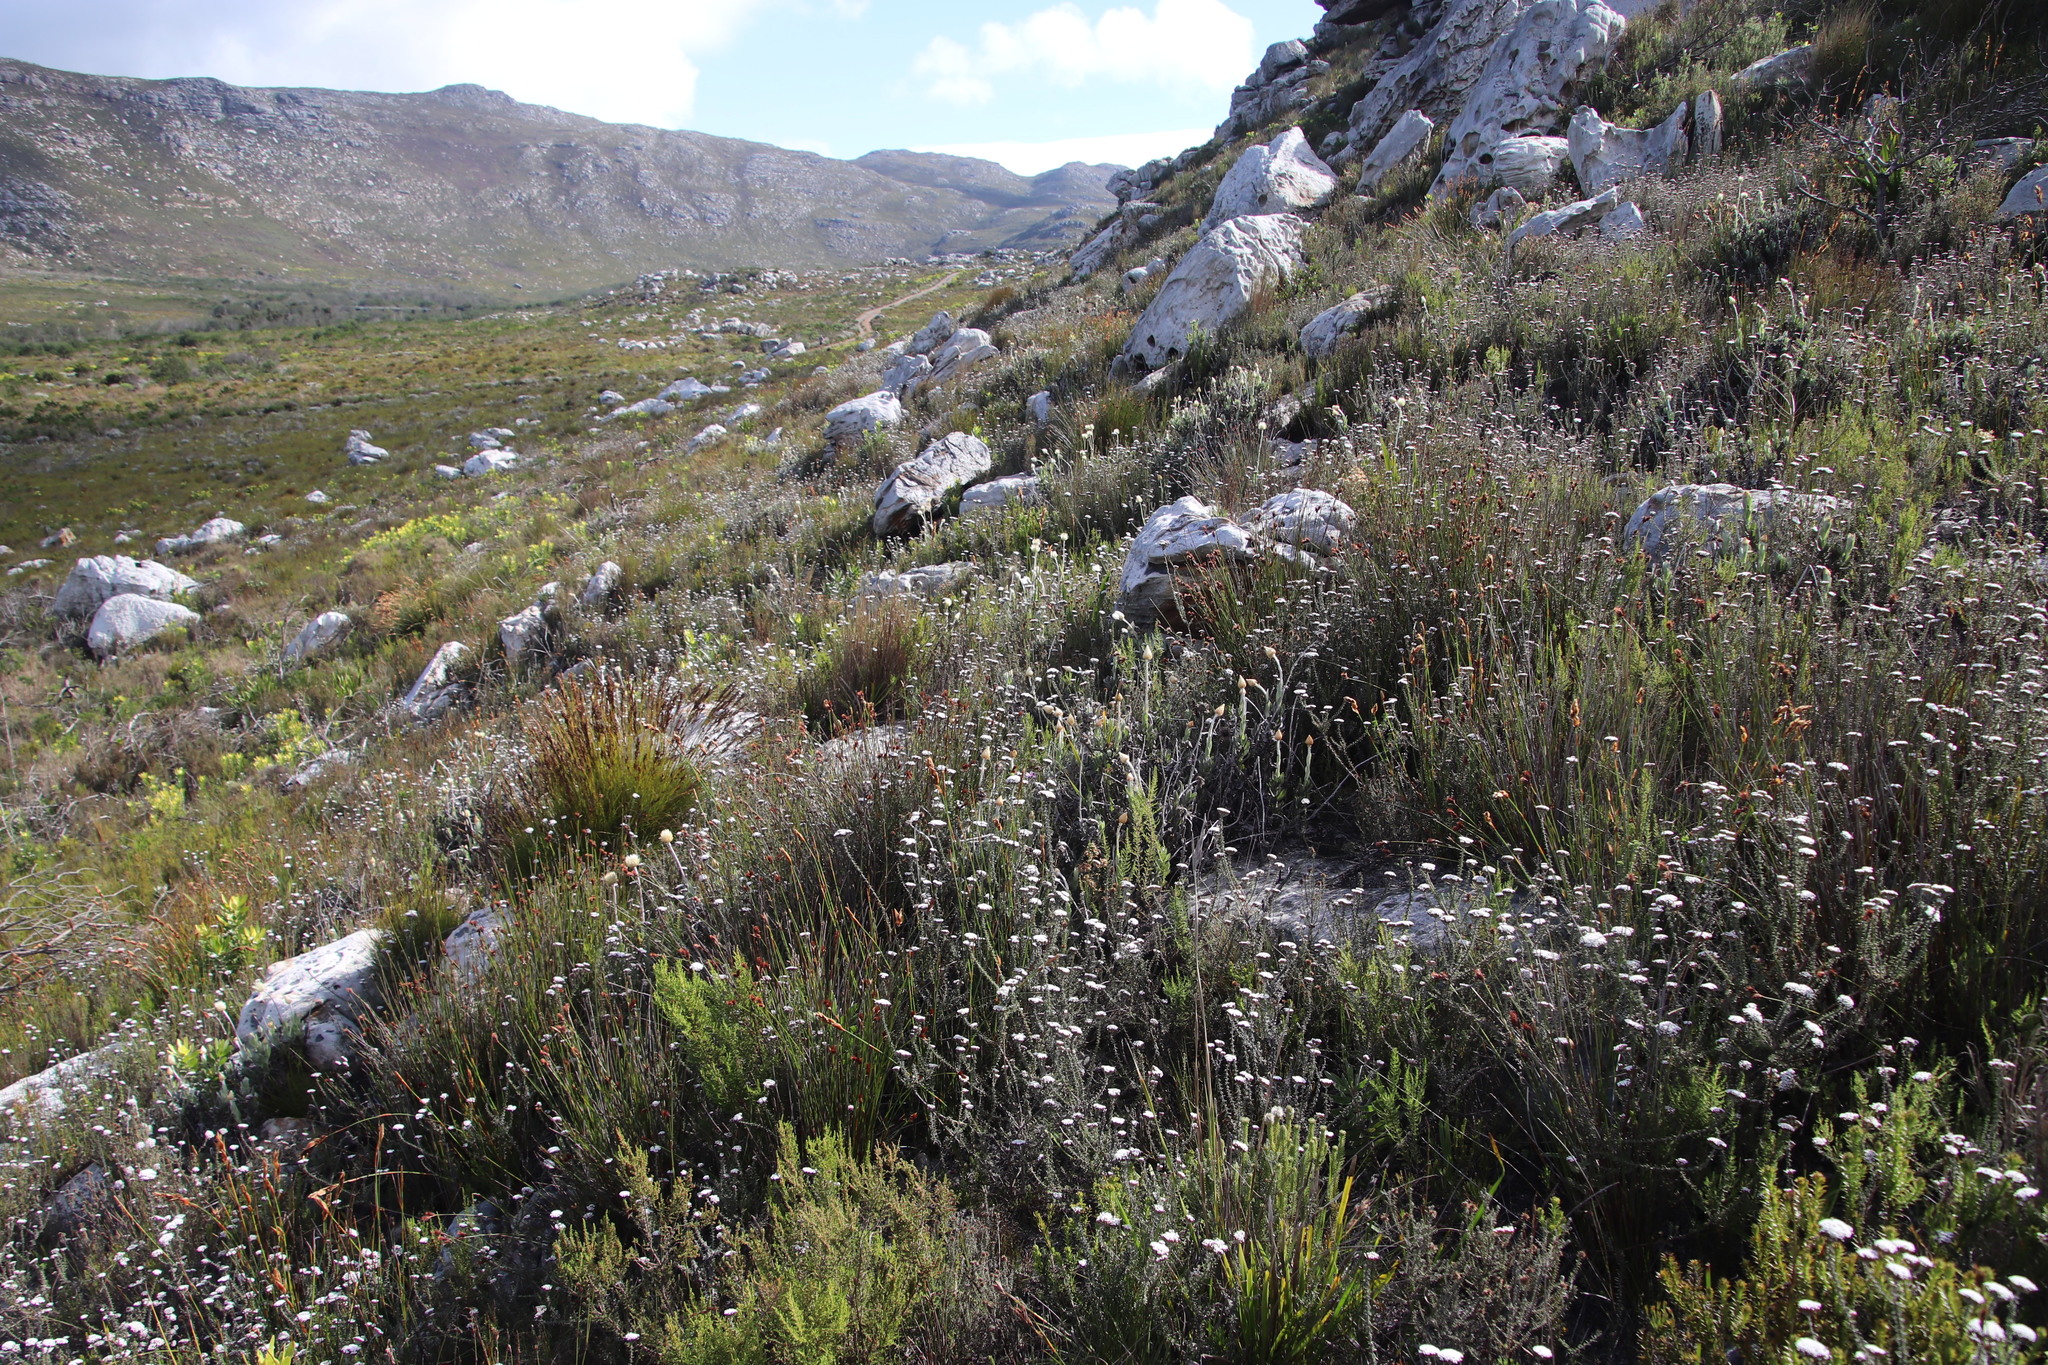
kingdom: Plantae
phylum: Tracheophyta
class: Magnoliopsida
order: Asterales
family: Asteraceae
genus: Metalasia
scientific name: Metalasia densa
